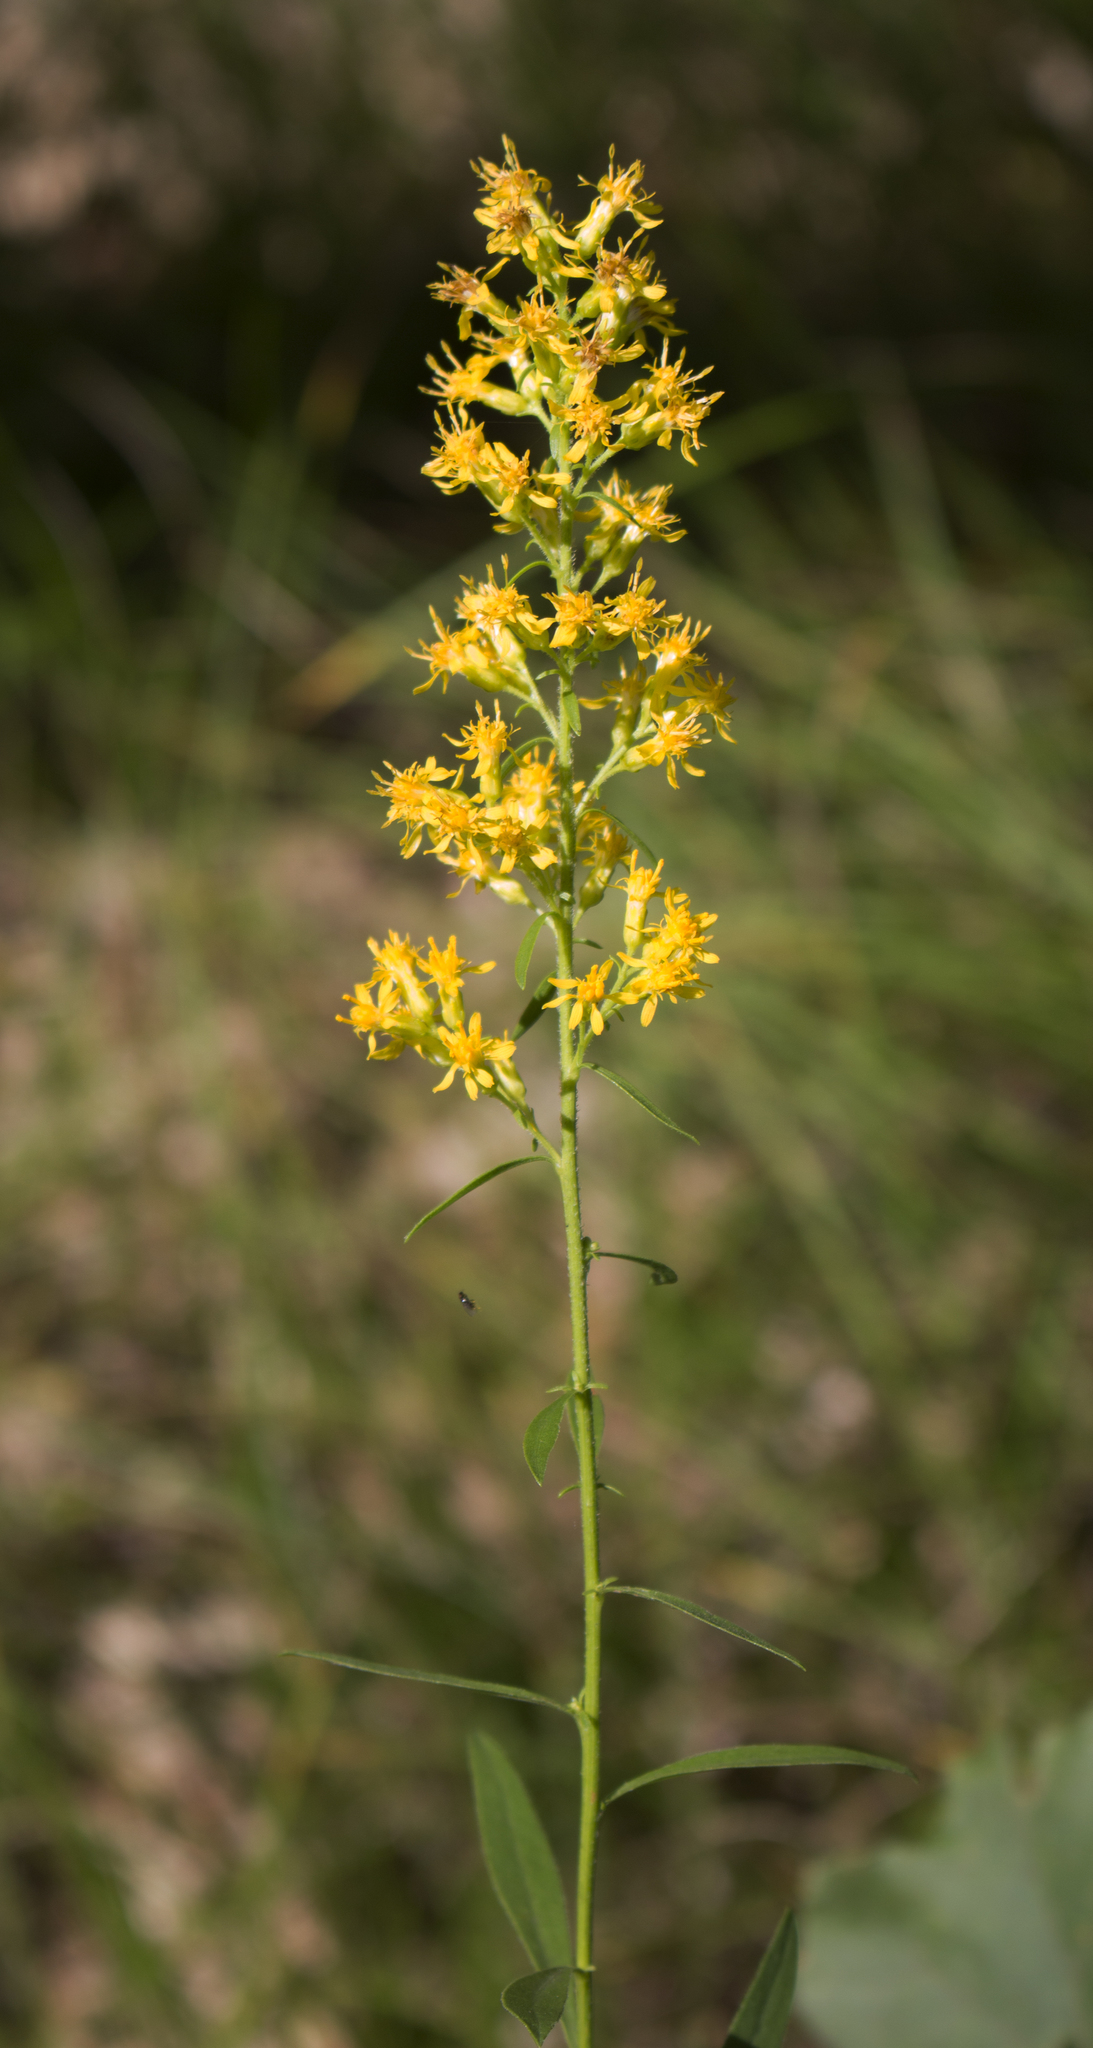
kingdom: Plantae
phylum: Tracheophyta
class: Magnoliopsida
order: Asterales
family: Asteraceae
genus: Solidago
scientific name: Solidago hispida
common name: Hairy goldenrod
